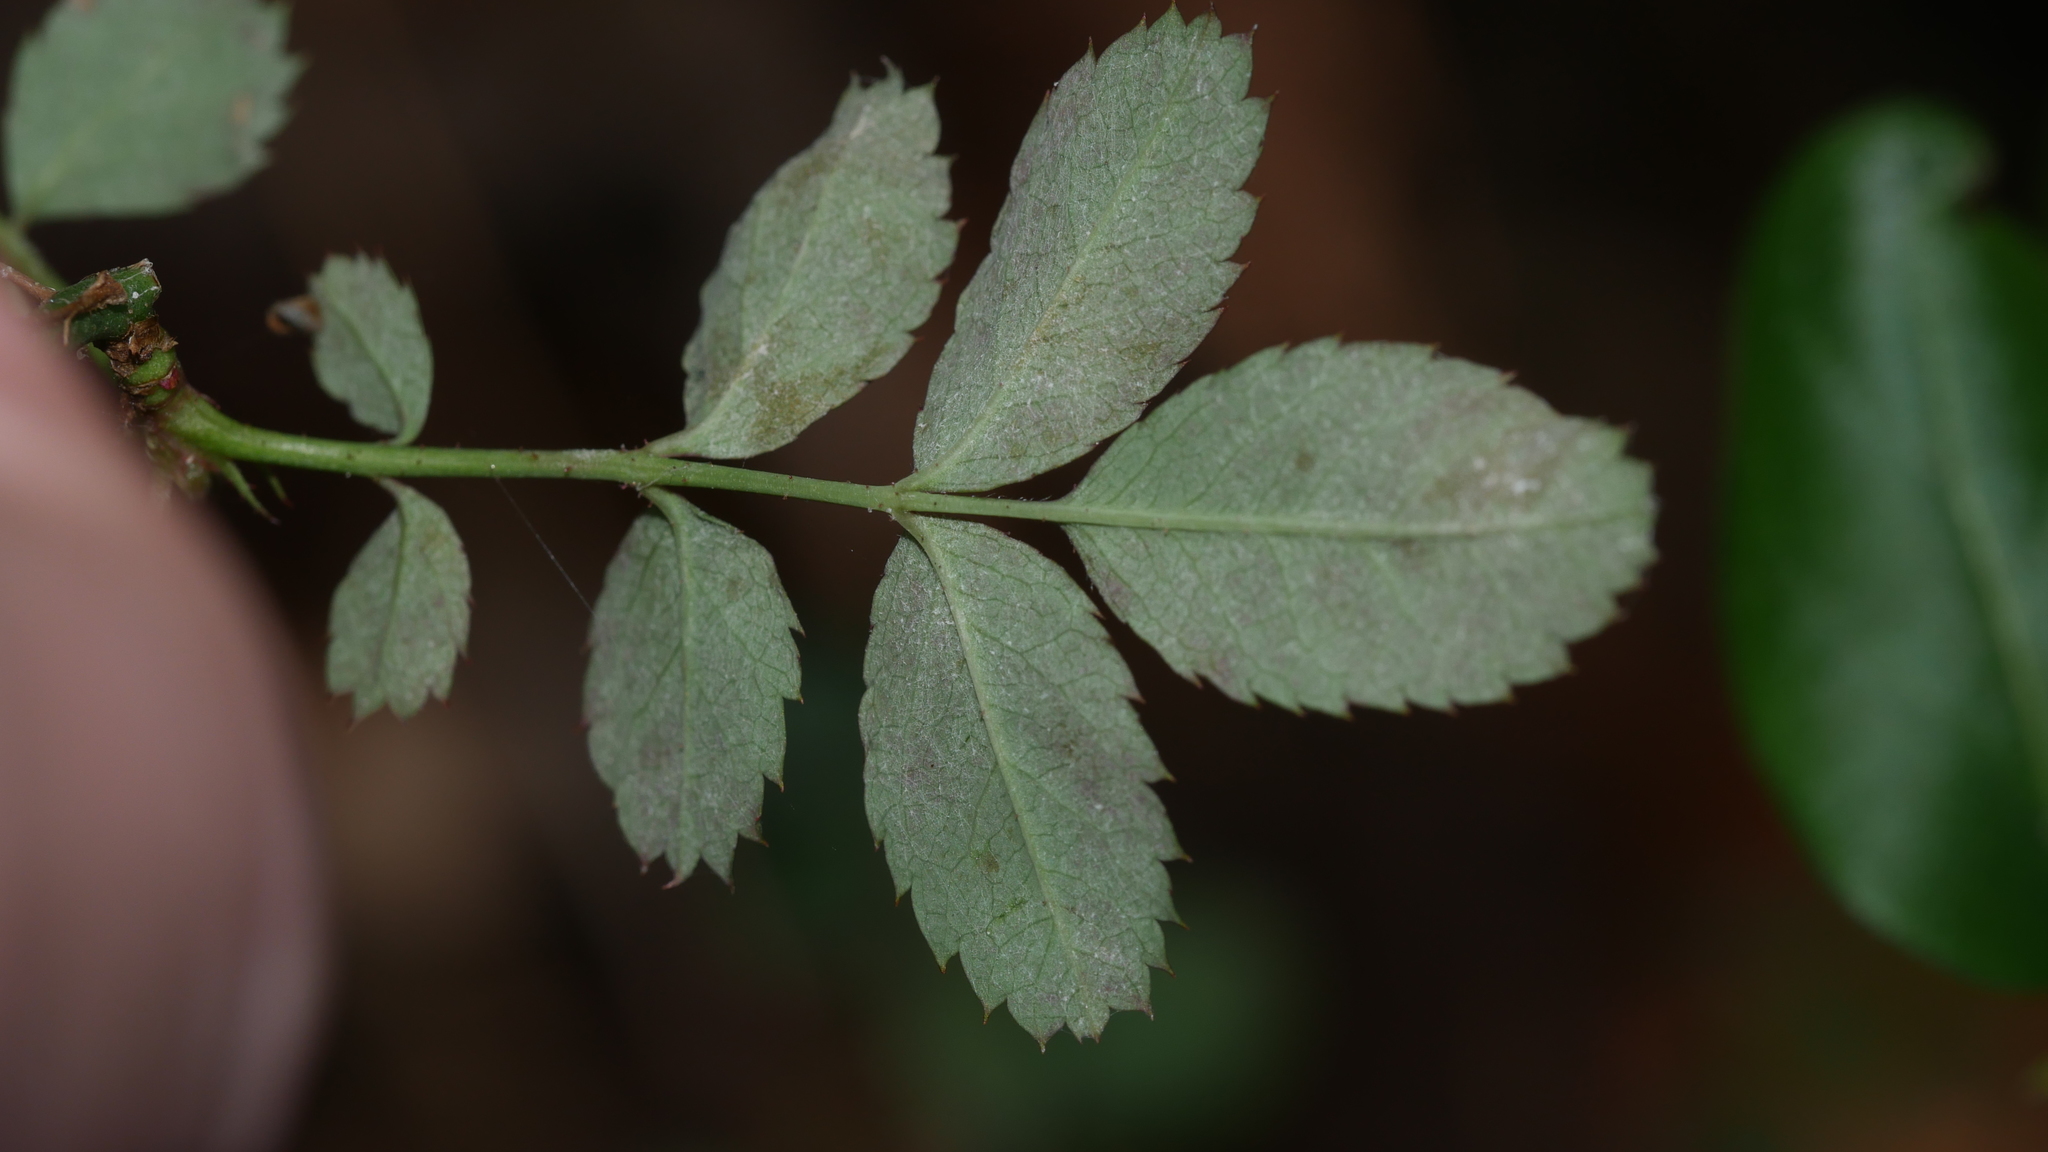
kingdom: Fungi
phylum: Ascomycota
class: Leotiomycetes
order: Helotiales
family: Erysiphaceae
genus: Podosphaera
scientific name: Podosphaera pannosa
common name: Rose mildew
